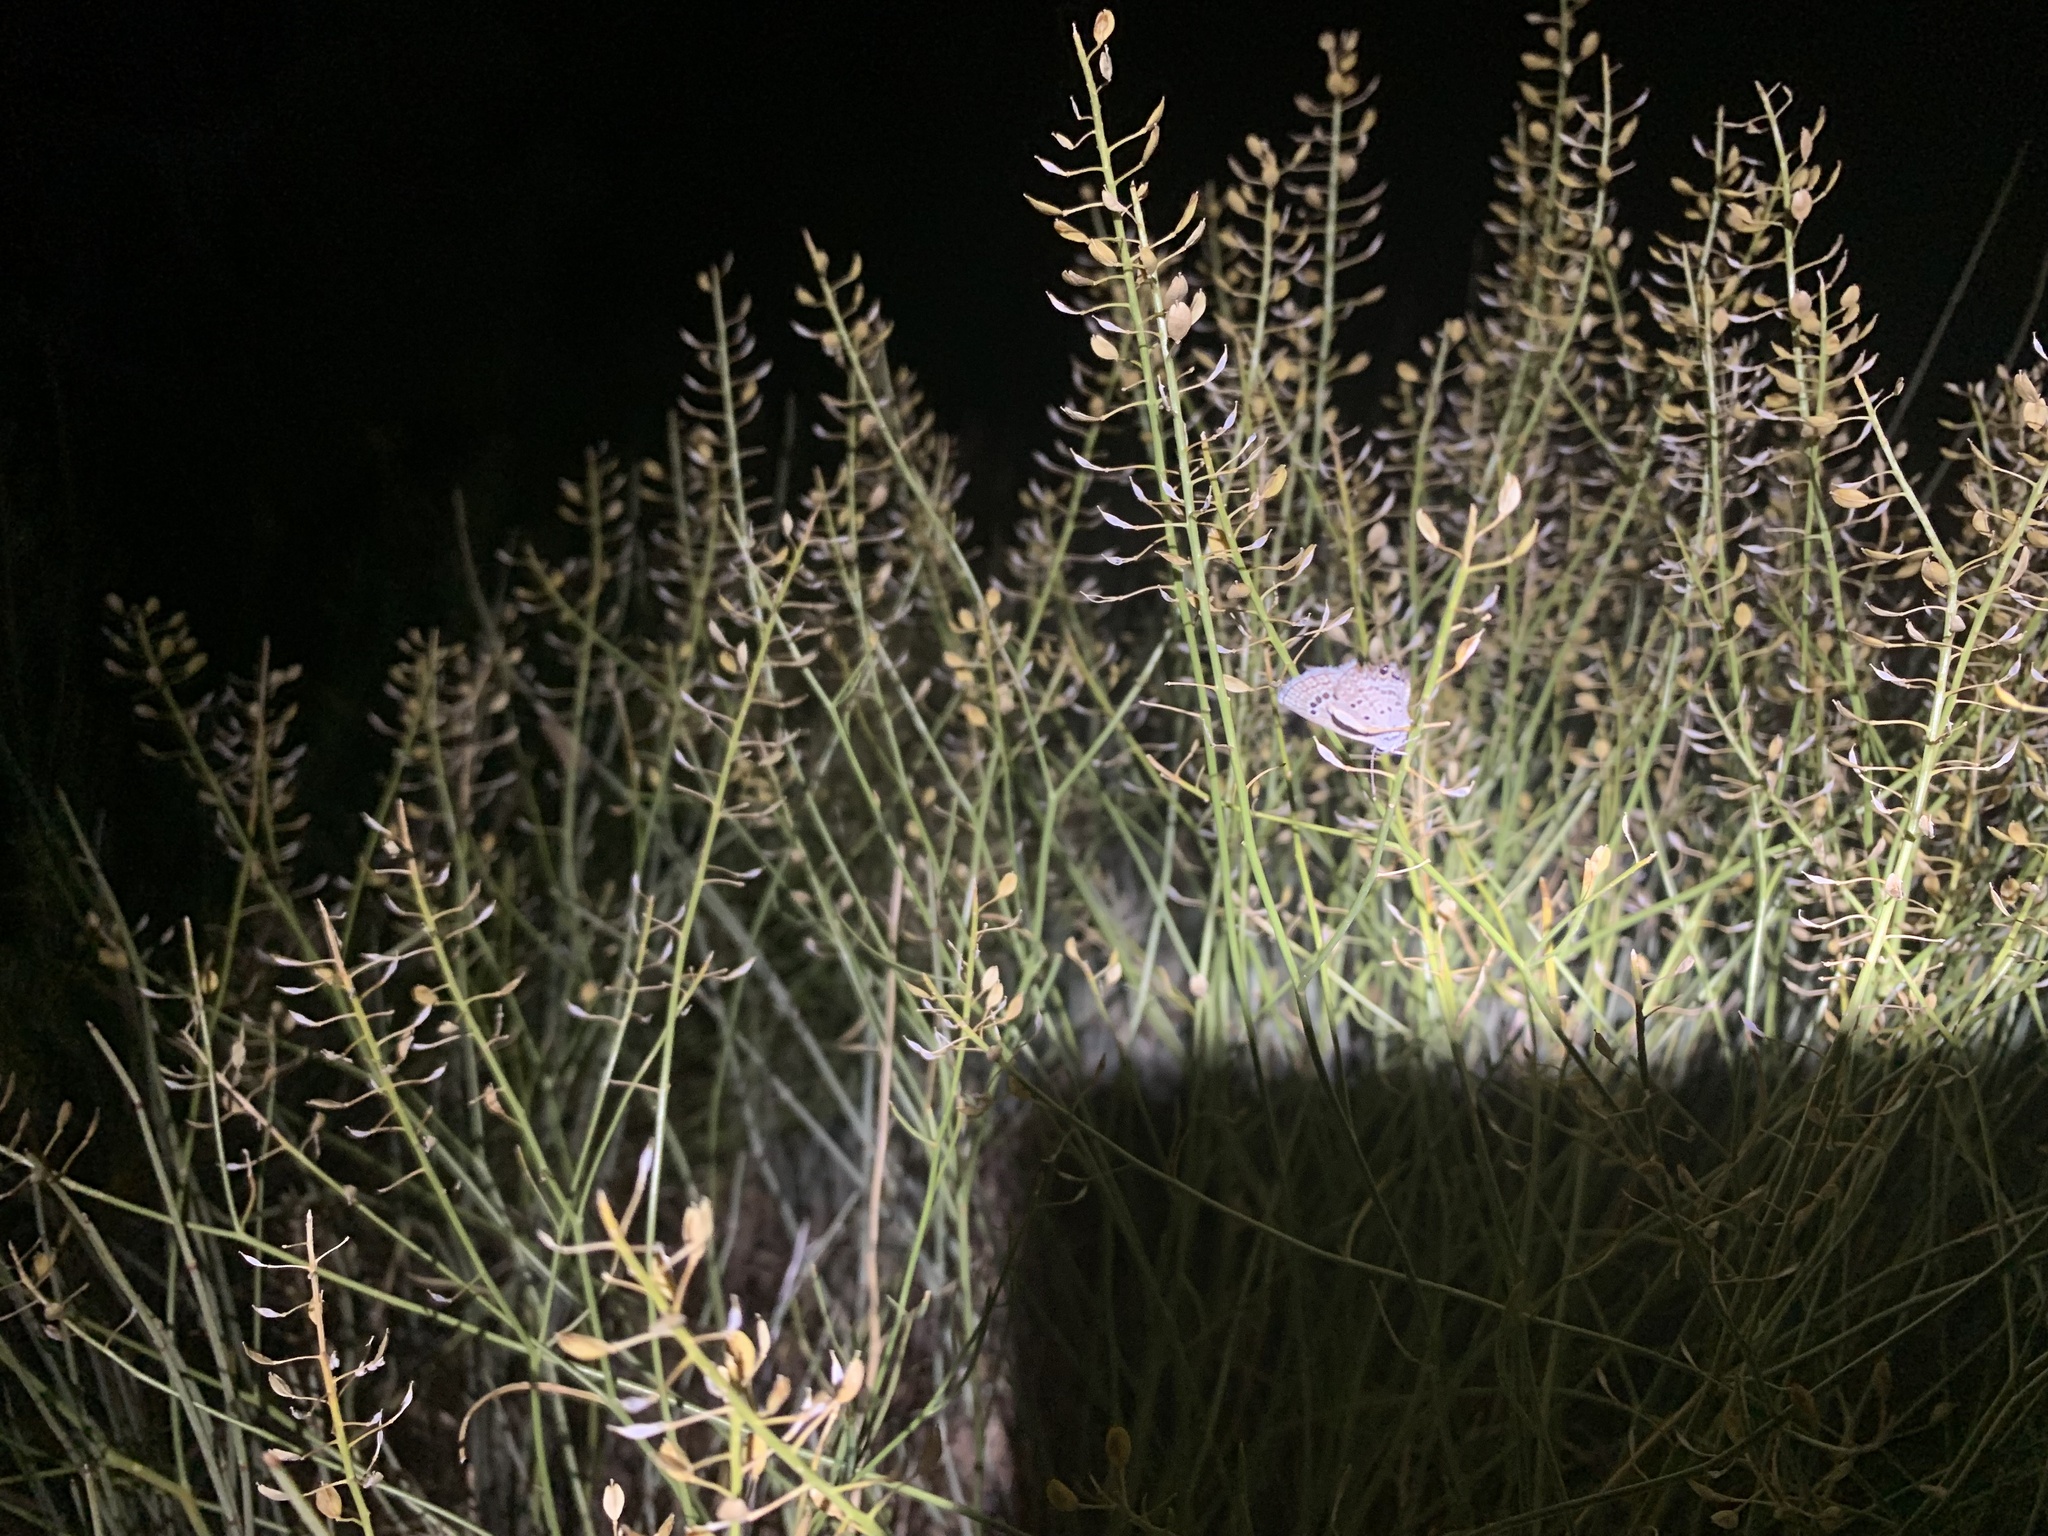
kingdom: Animalia
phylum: Arthropoda
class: Insecta
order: Lepidoptera
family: Lycaenidae
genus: Echinargus
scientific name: Echinargus isola
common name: Reakirt's blue
